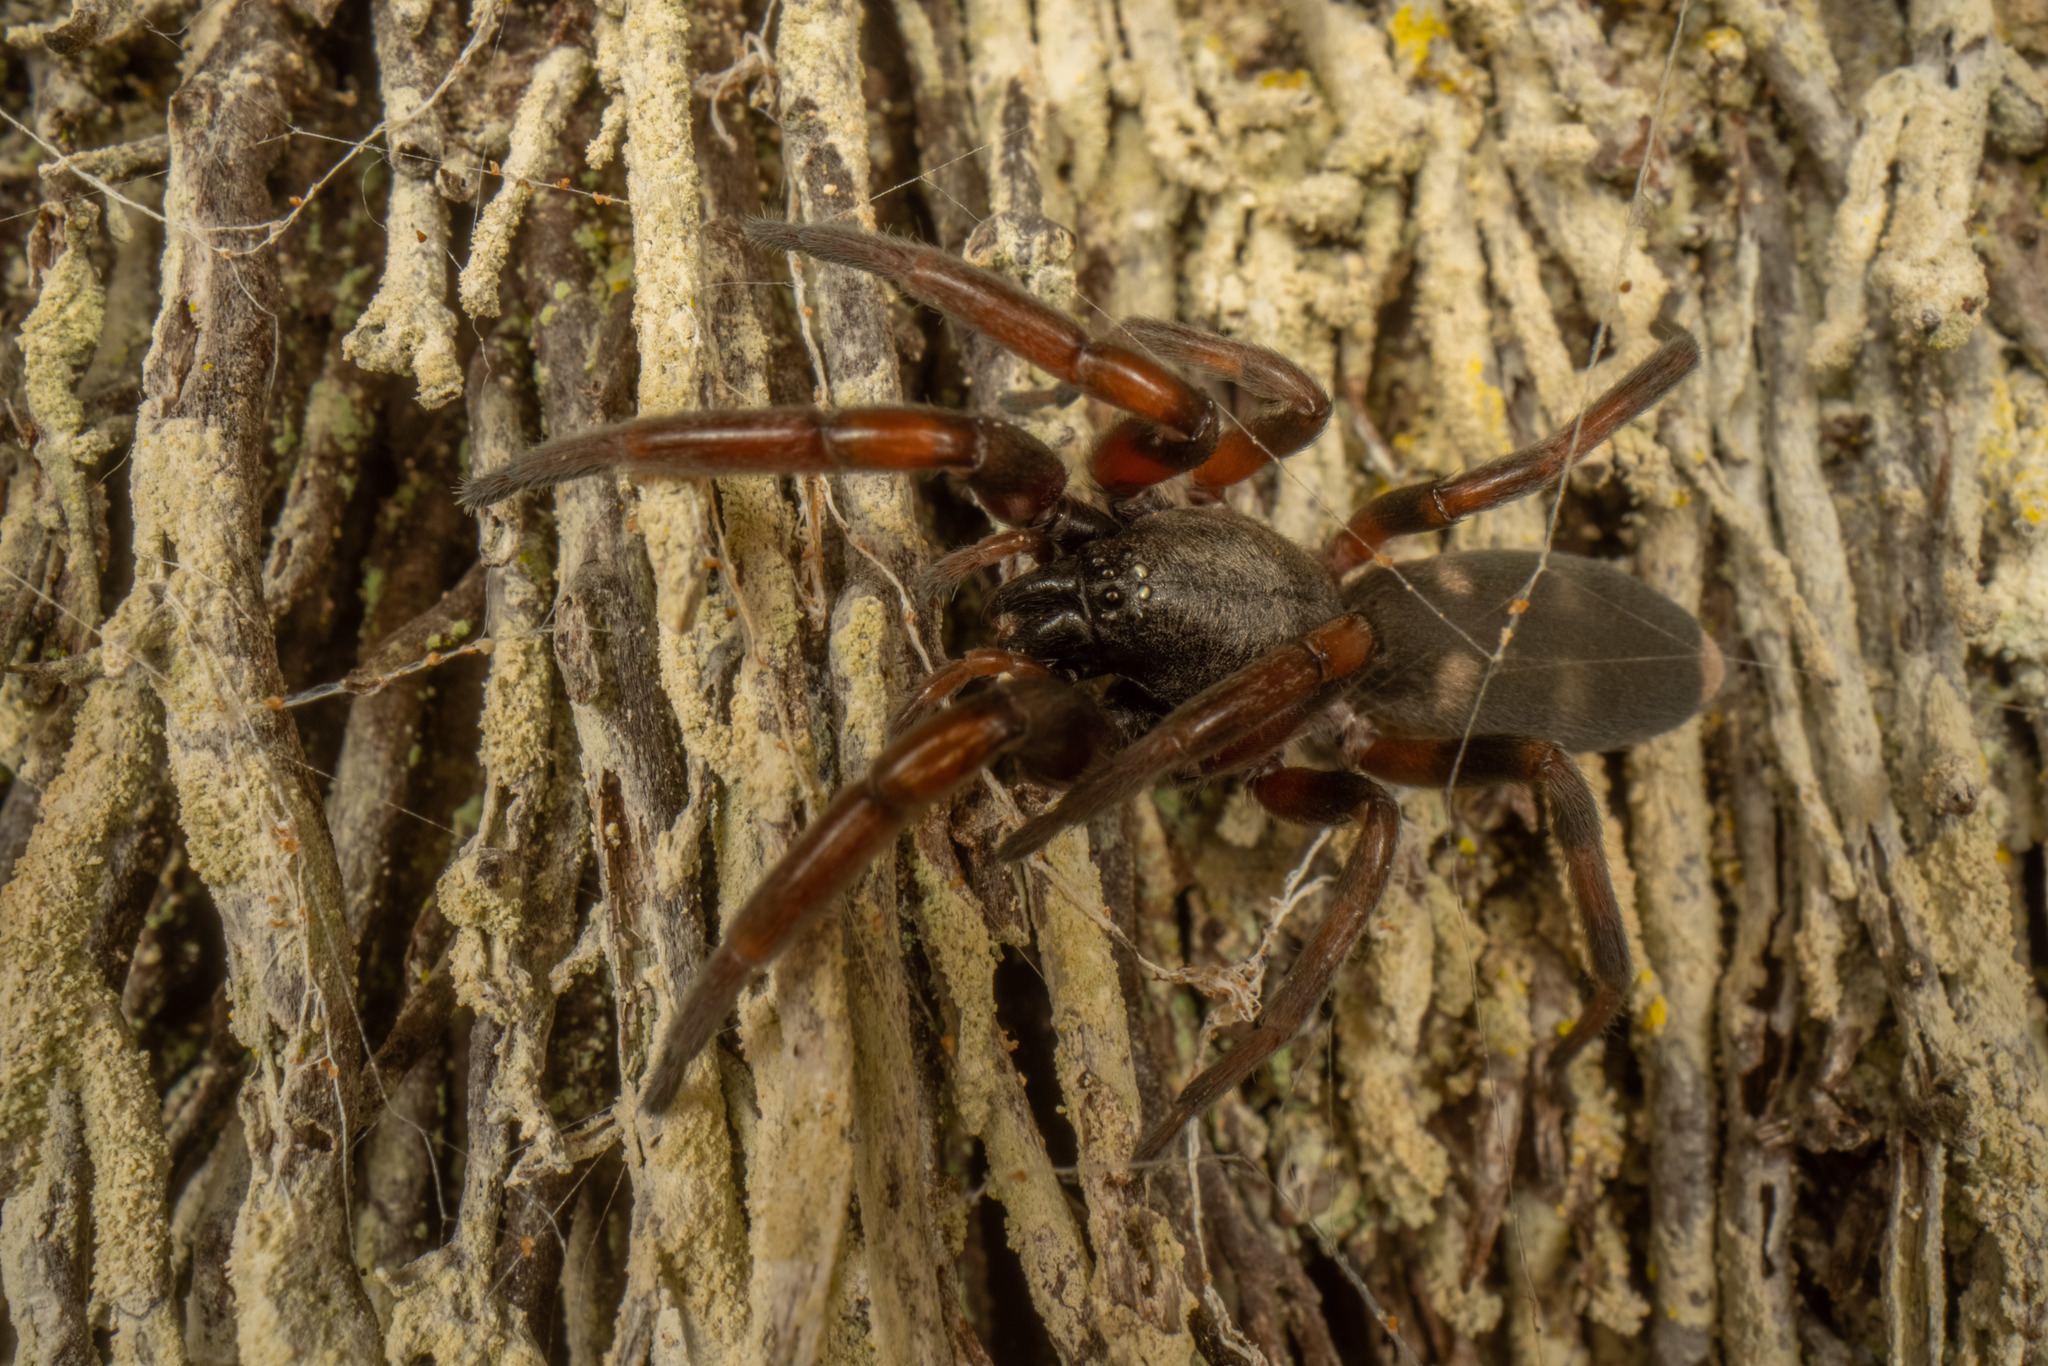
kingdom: Animalia
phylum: Arthropoda
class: Arachnida
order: Araneae
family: Lamponidae
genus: Lampona
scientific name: Lampona murina
